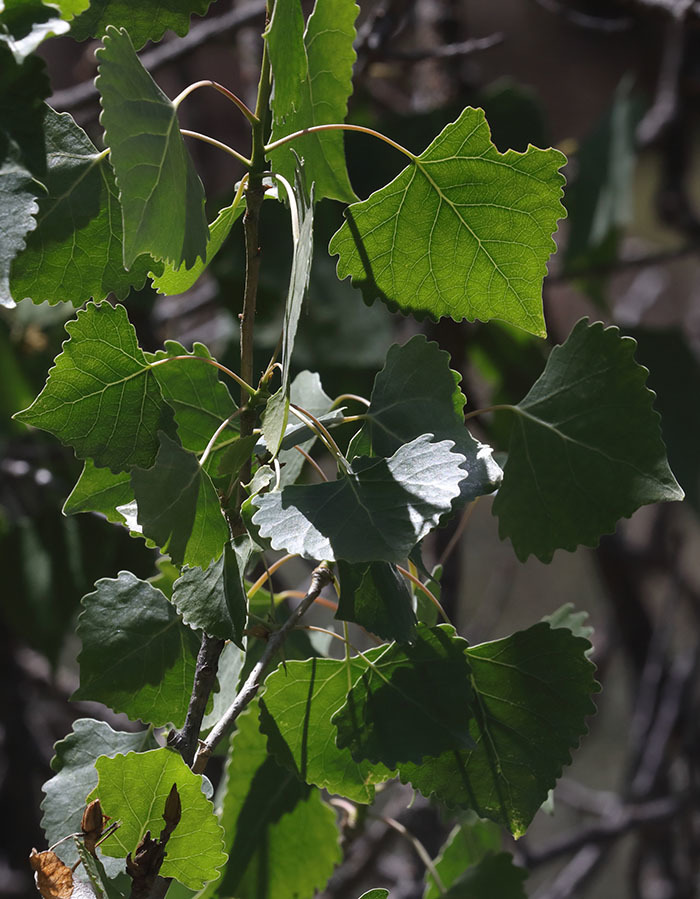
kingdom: Plantae
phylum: Tracheophyta
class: Magnoliopsida
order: Malpighiales
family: Salicaceae
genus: Populus
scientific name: Populus fremontii
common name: Fremont's cottonwood
